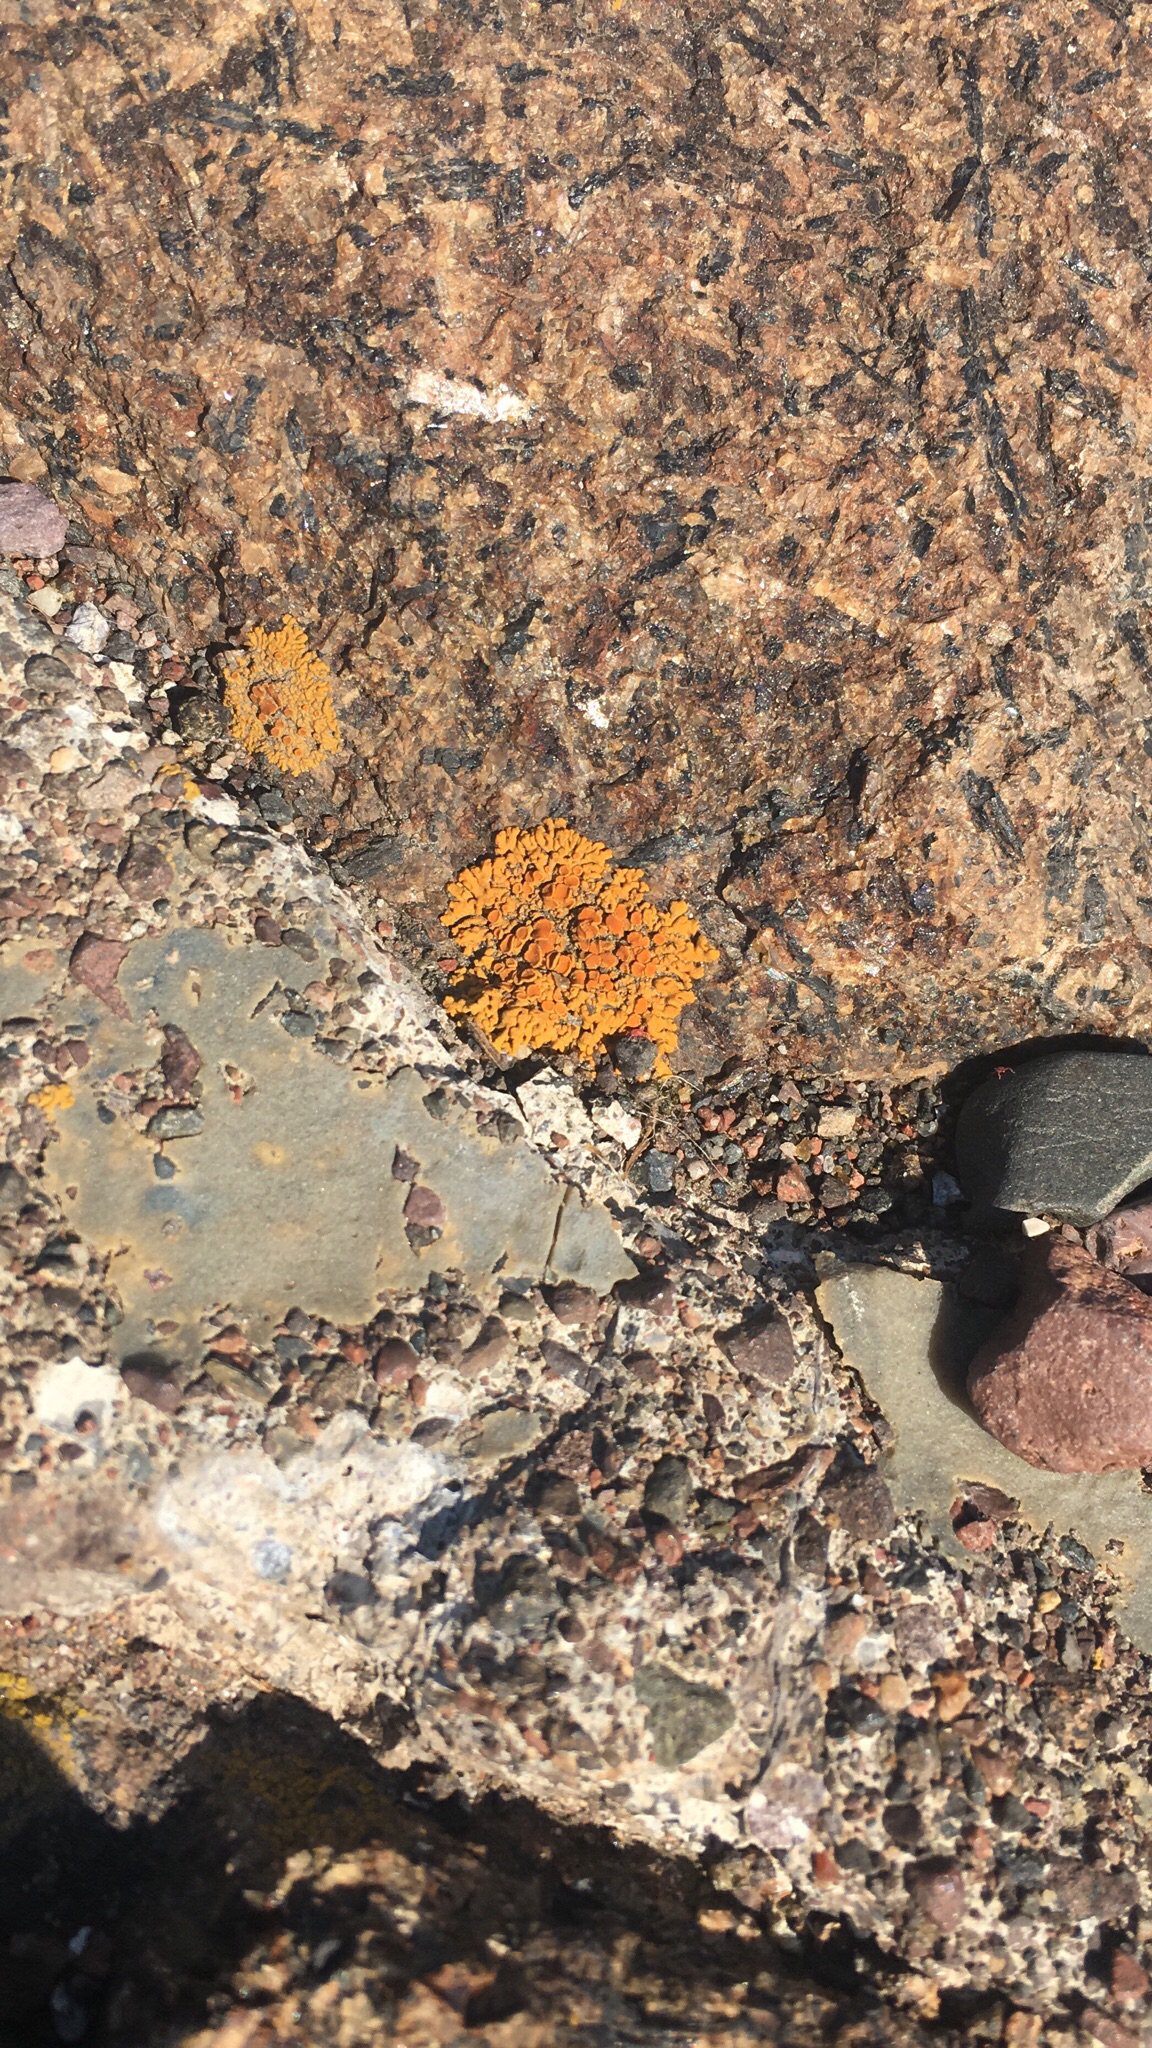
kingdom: Fungi
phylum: Ascomycota
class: Lecanoromycetes
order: Teloschistales
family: Teloschistaceae
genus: Xanthoria
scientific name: Xanthoria elegans
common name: Elegant sunburst lichen
